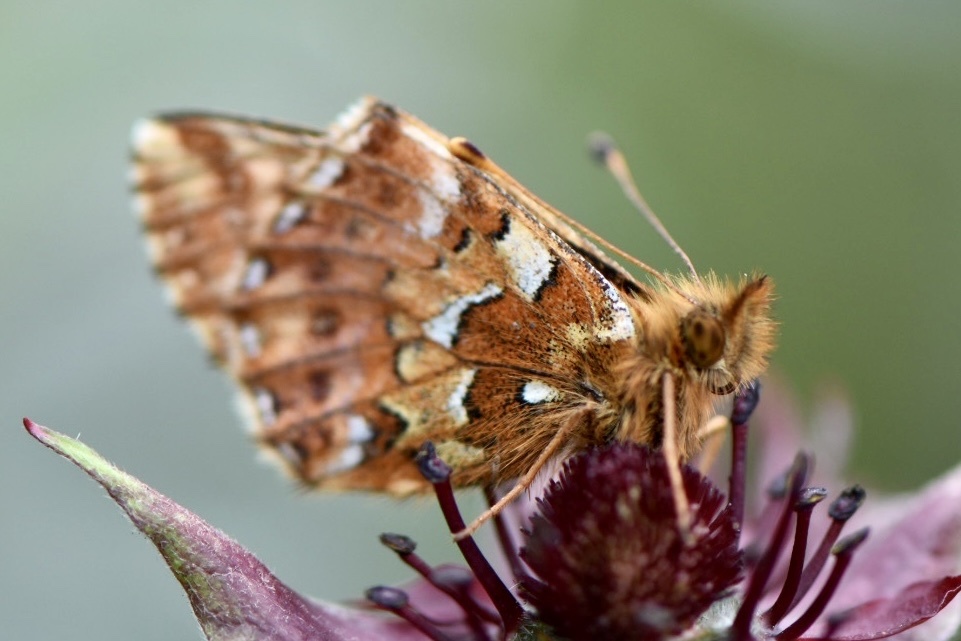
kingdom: Animalia
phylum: Arthropoda
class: Insecta
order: Lepidoptera
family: Nymphalidae
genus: Boloria
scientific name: Boloria aquilonaris
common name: Cranberry fritillary
